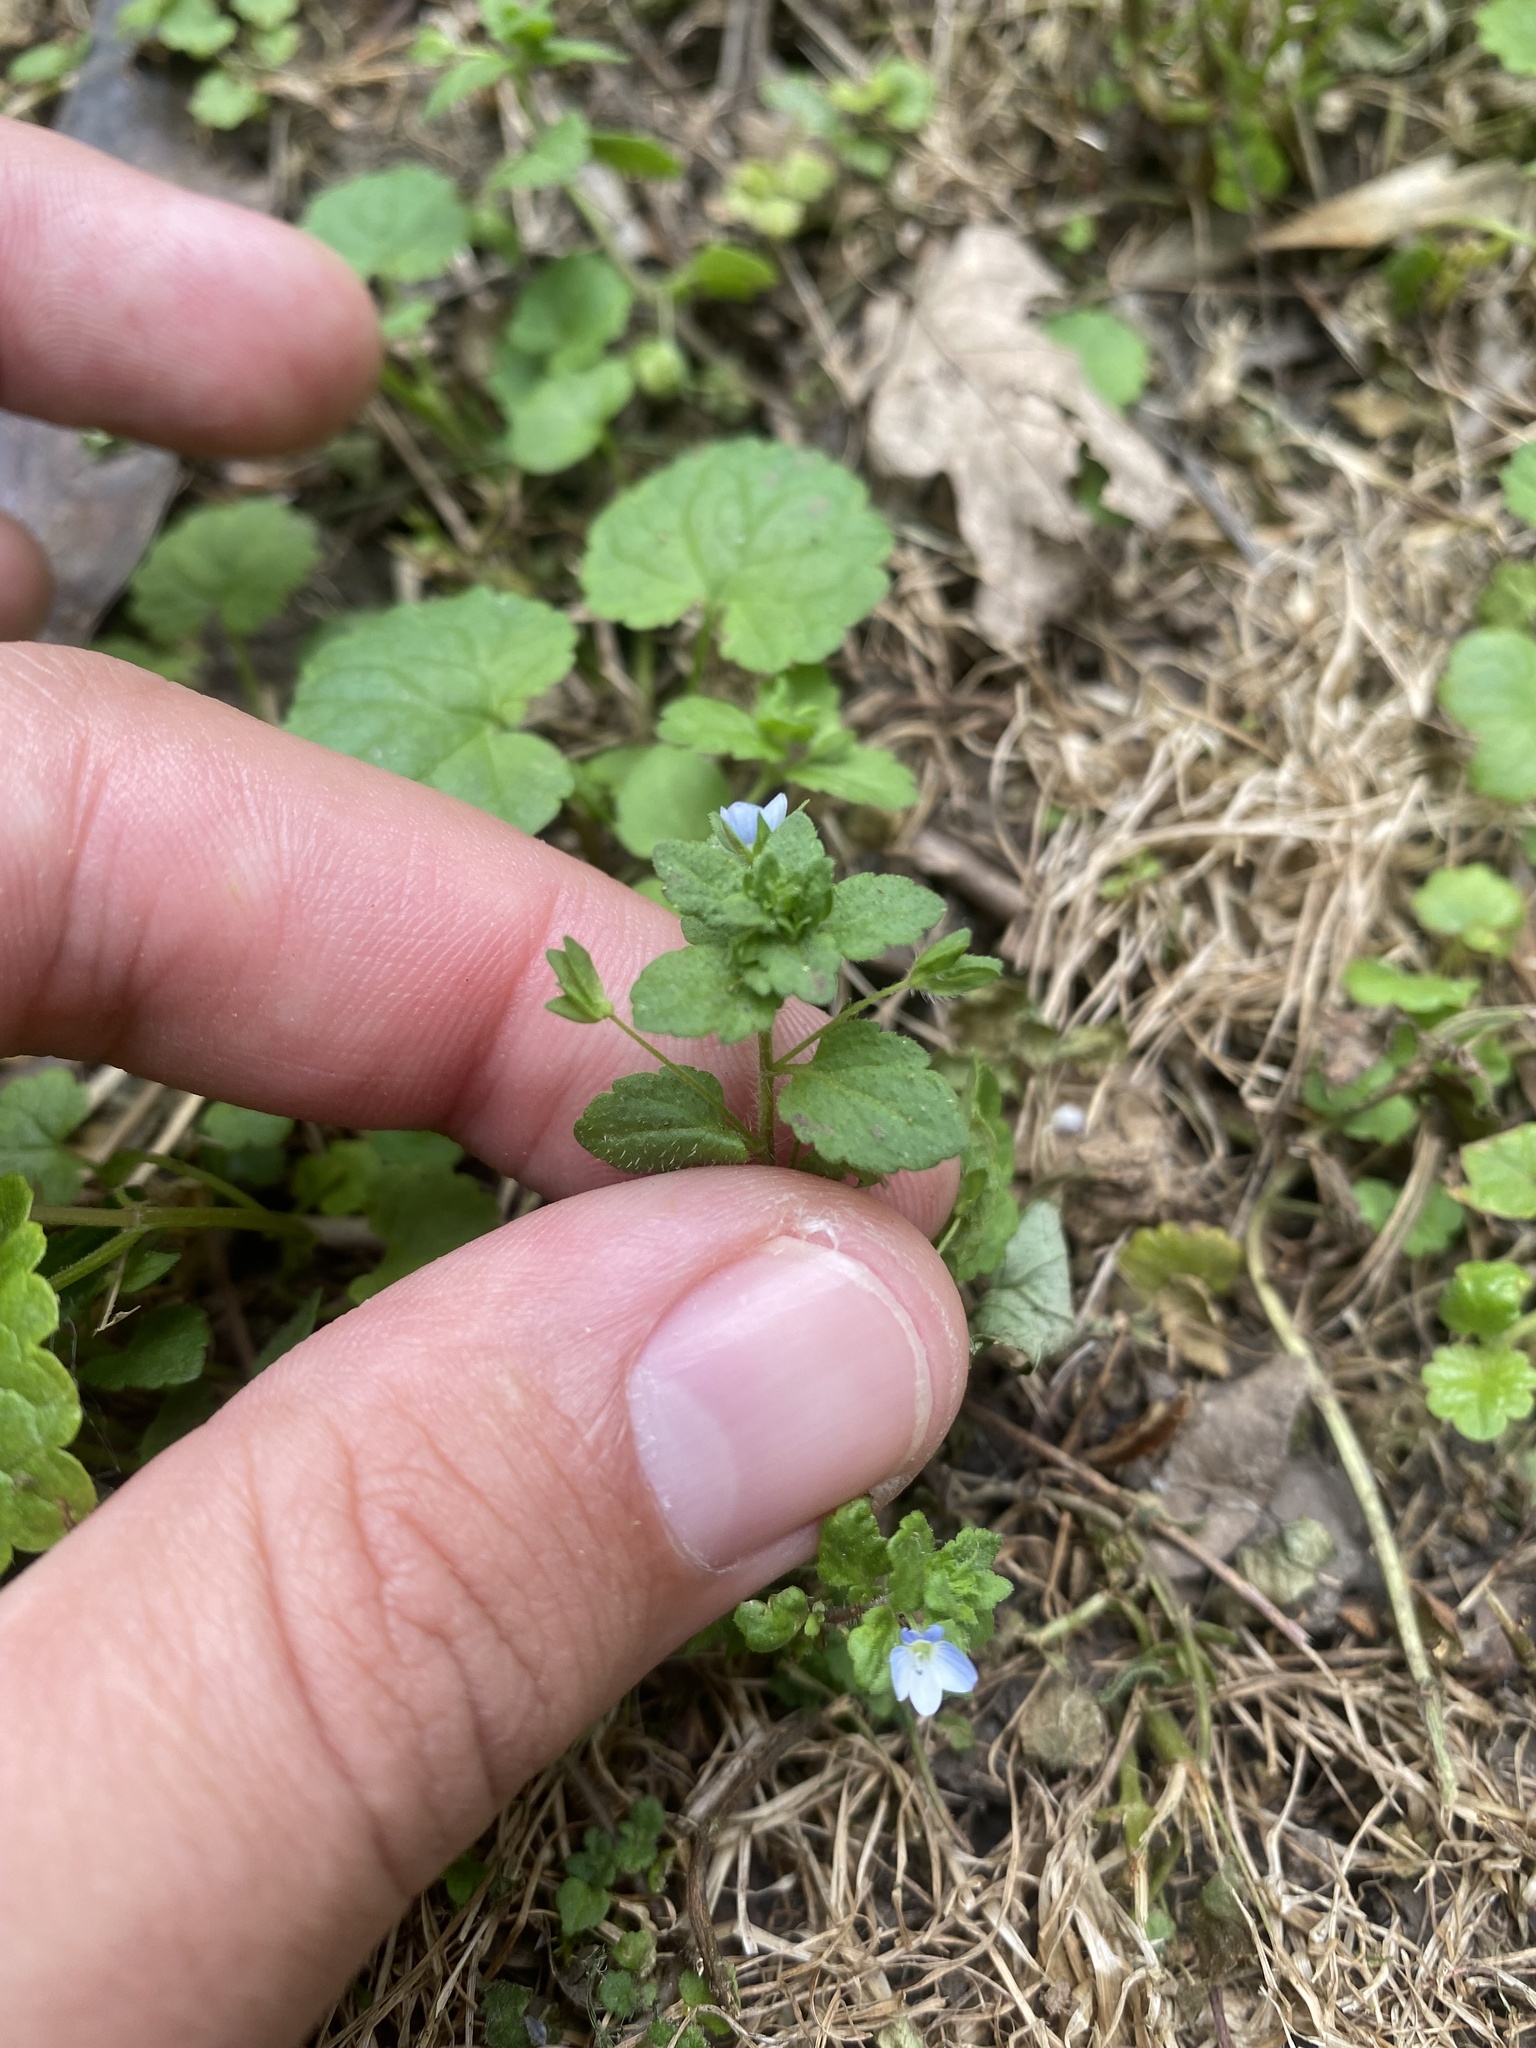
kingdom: Plantae
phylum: Tracheophyta
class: Magnoliopsida
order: Lamiales
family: Plantaginaceae
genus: Veronica
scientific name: Veronica persica
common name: Common field-speedwell
